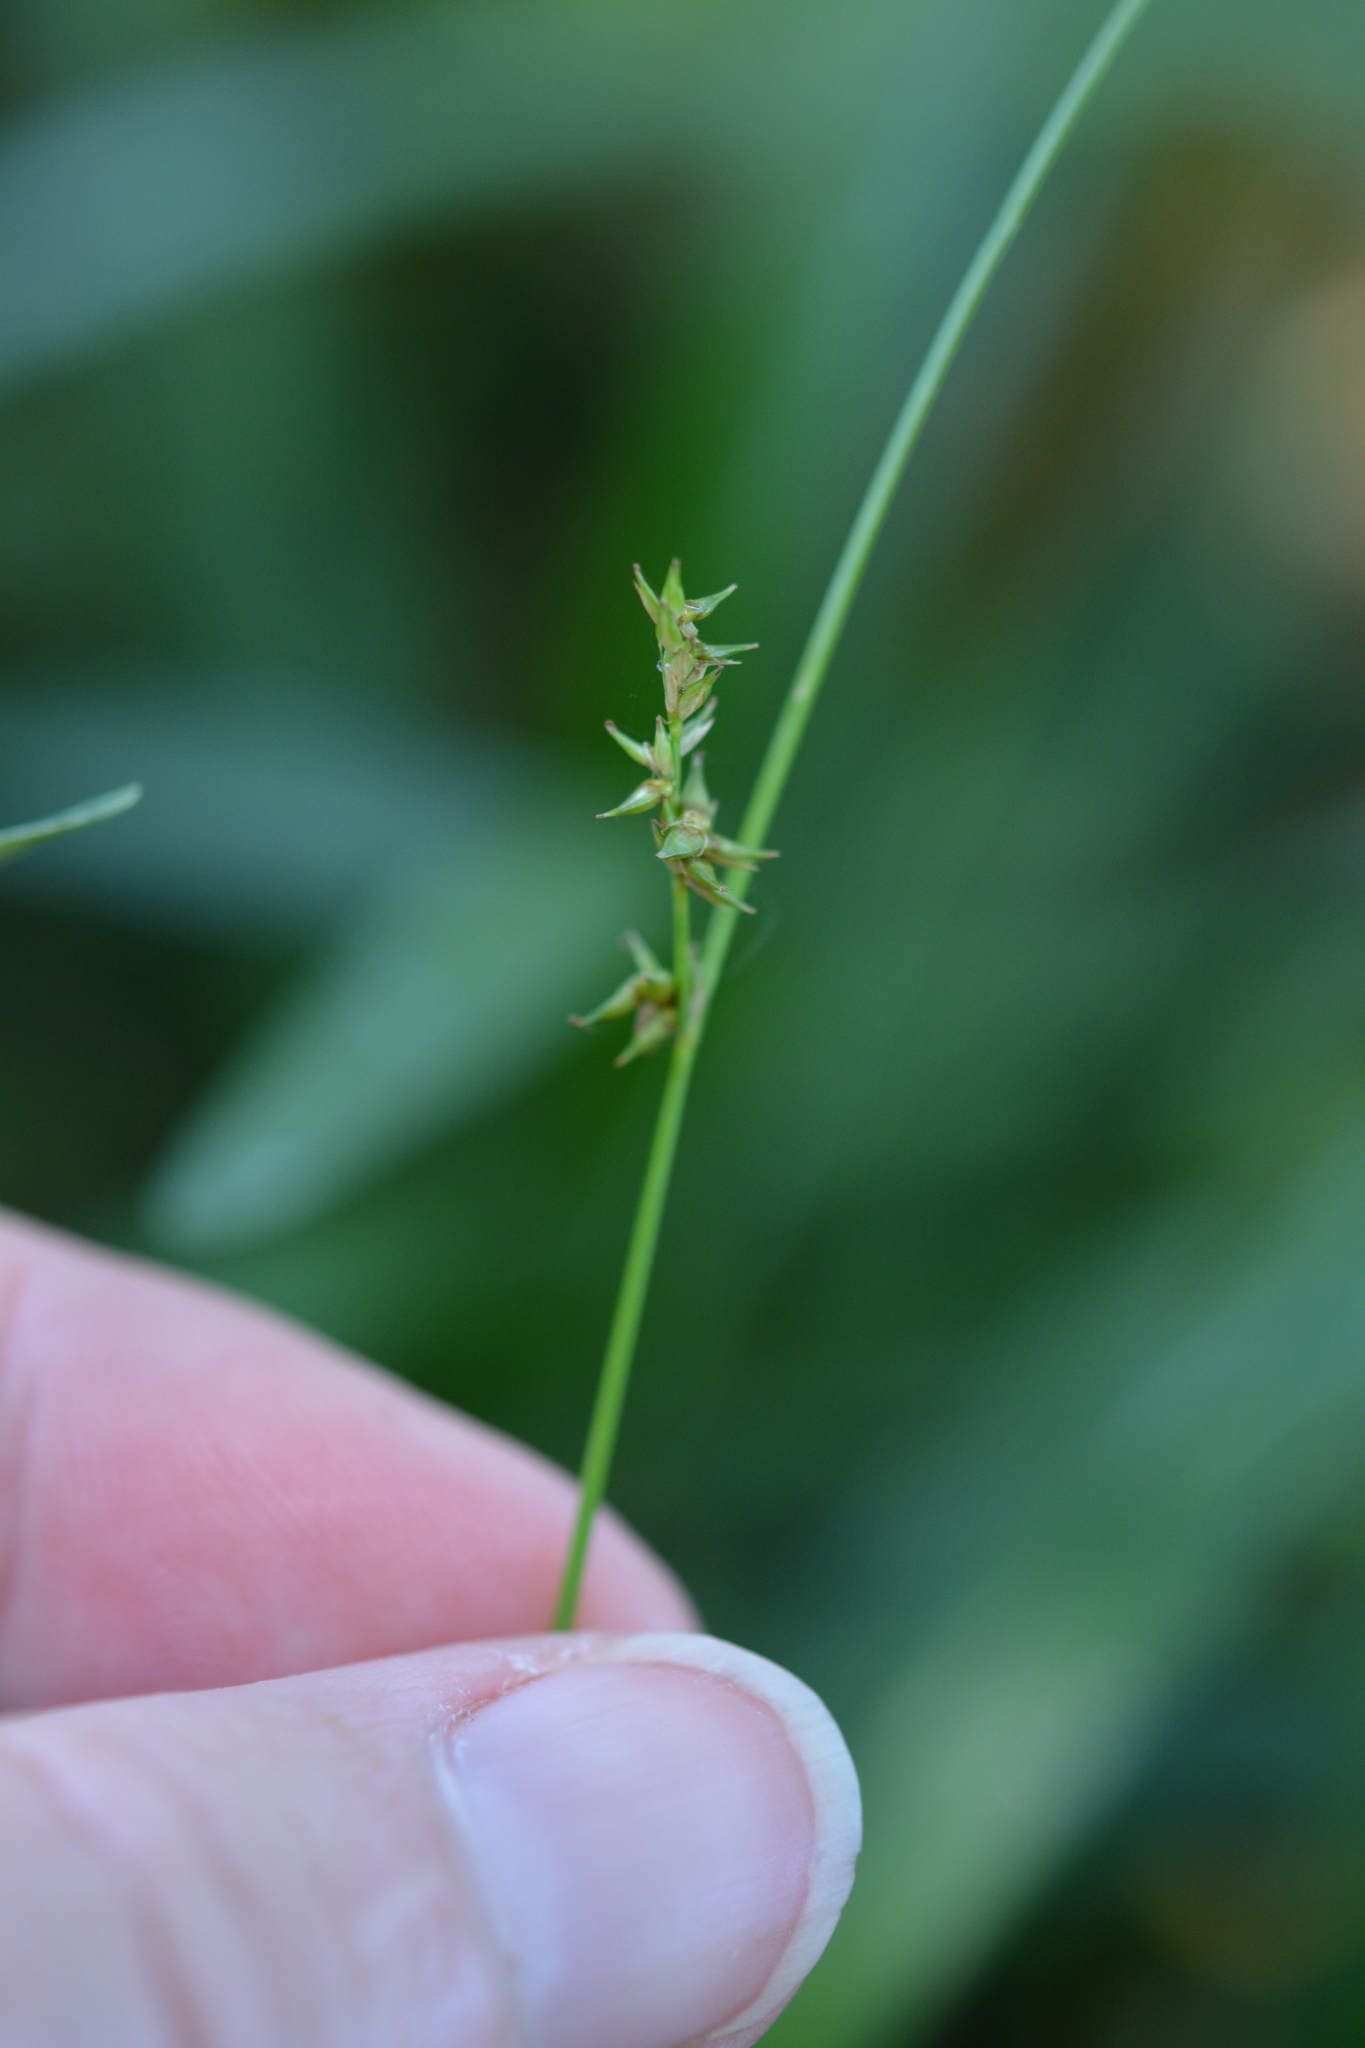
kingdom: Plantae
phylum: Tracheophyta
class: Liliopsida
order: Poales
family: Cyperaceae
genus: Carex
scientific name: Carex atlantica
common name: Atlantic sedge
